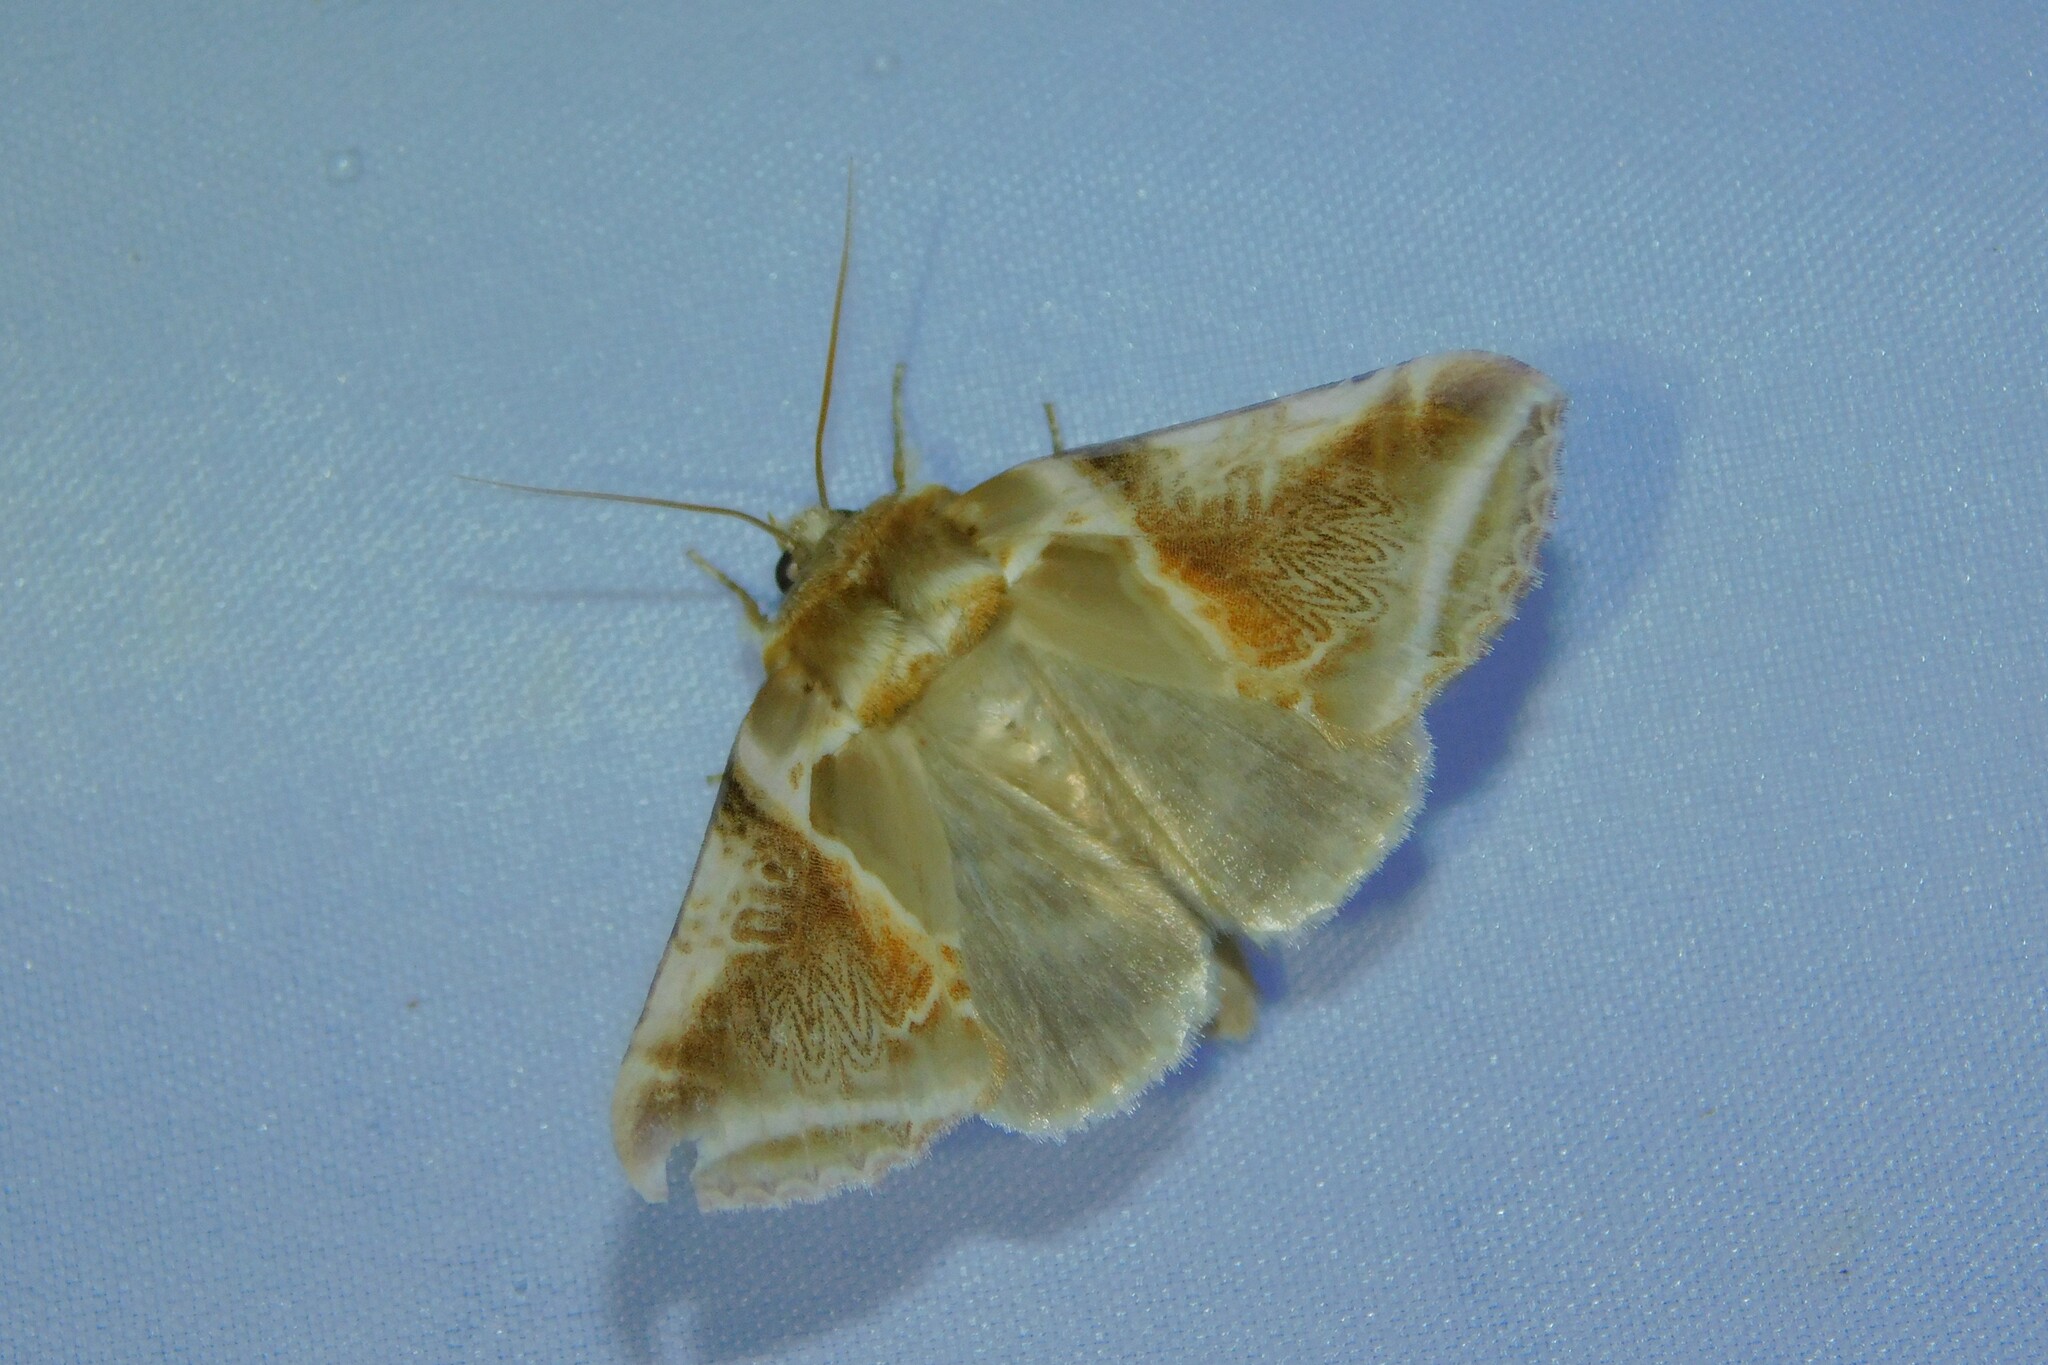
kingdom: Animalia
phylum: Arthropoda
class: Insecta
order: Lepidoptera
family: Drepanidae
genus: Habrosyne
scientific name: Habrosyne pyritoides
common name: Buff arches
